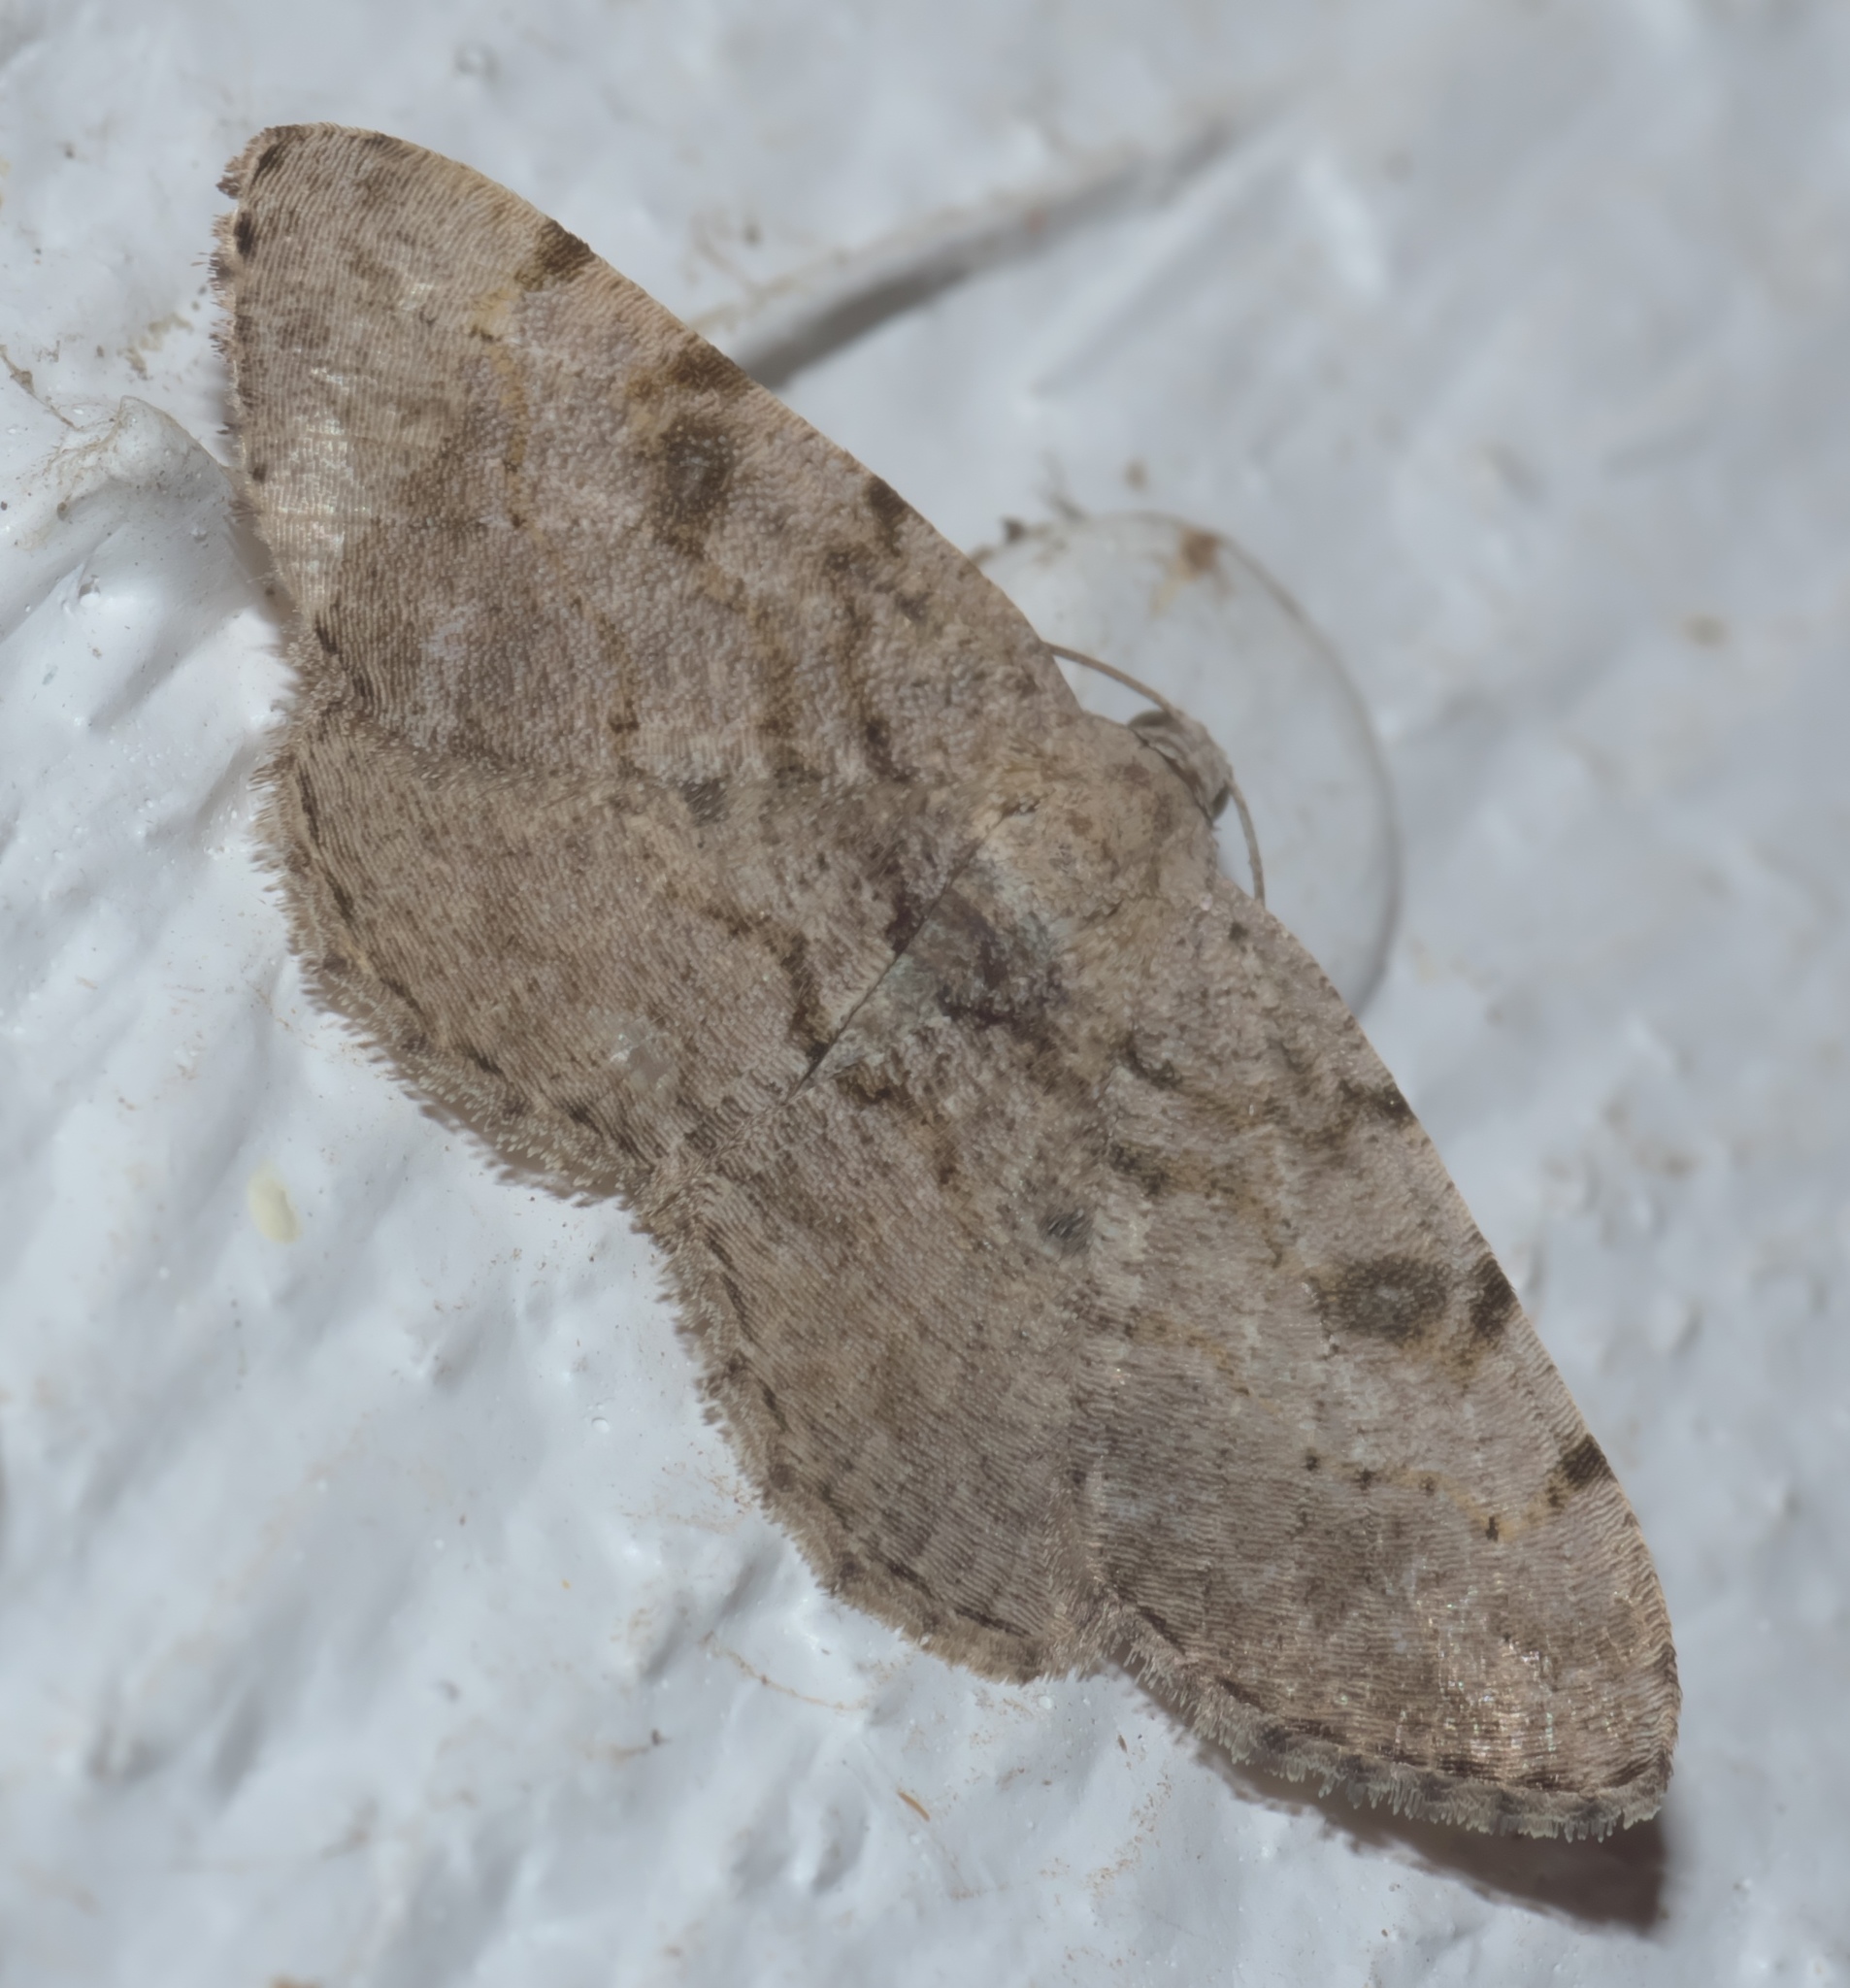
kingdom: Animalia
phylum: Arthropoda
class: Insecta
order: Lepidoptera
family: Geometridae
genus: Digrammia
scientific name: Digrammia gnophosaria
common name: Hollow-spotted angle
